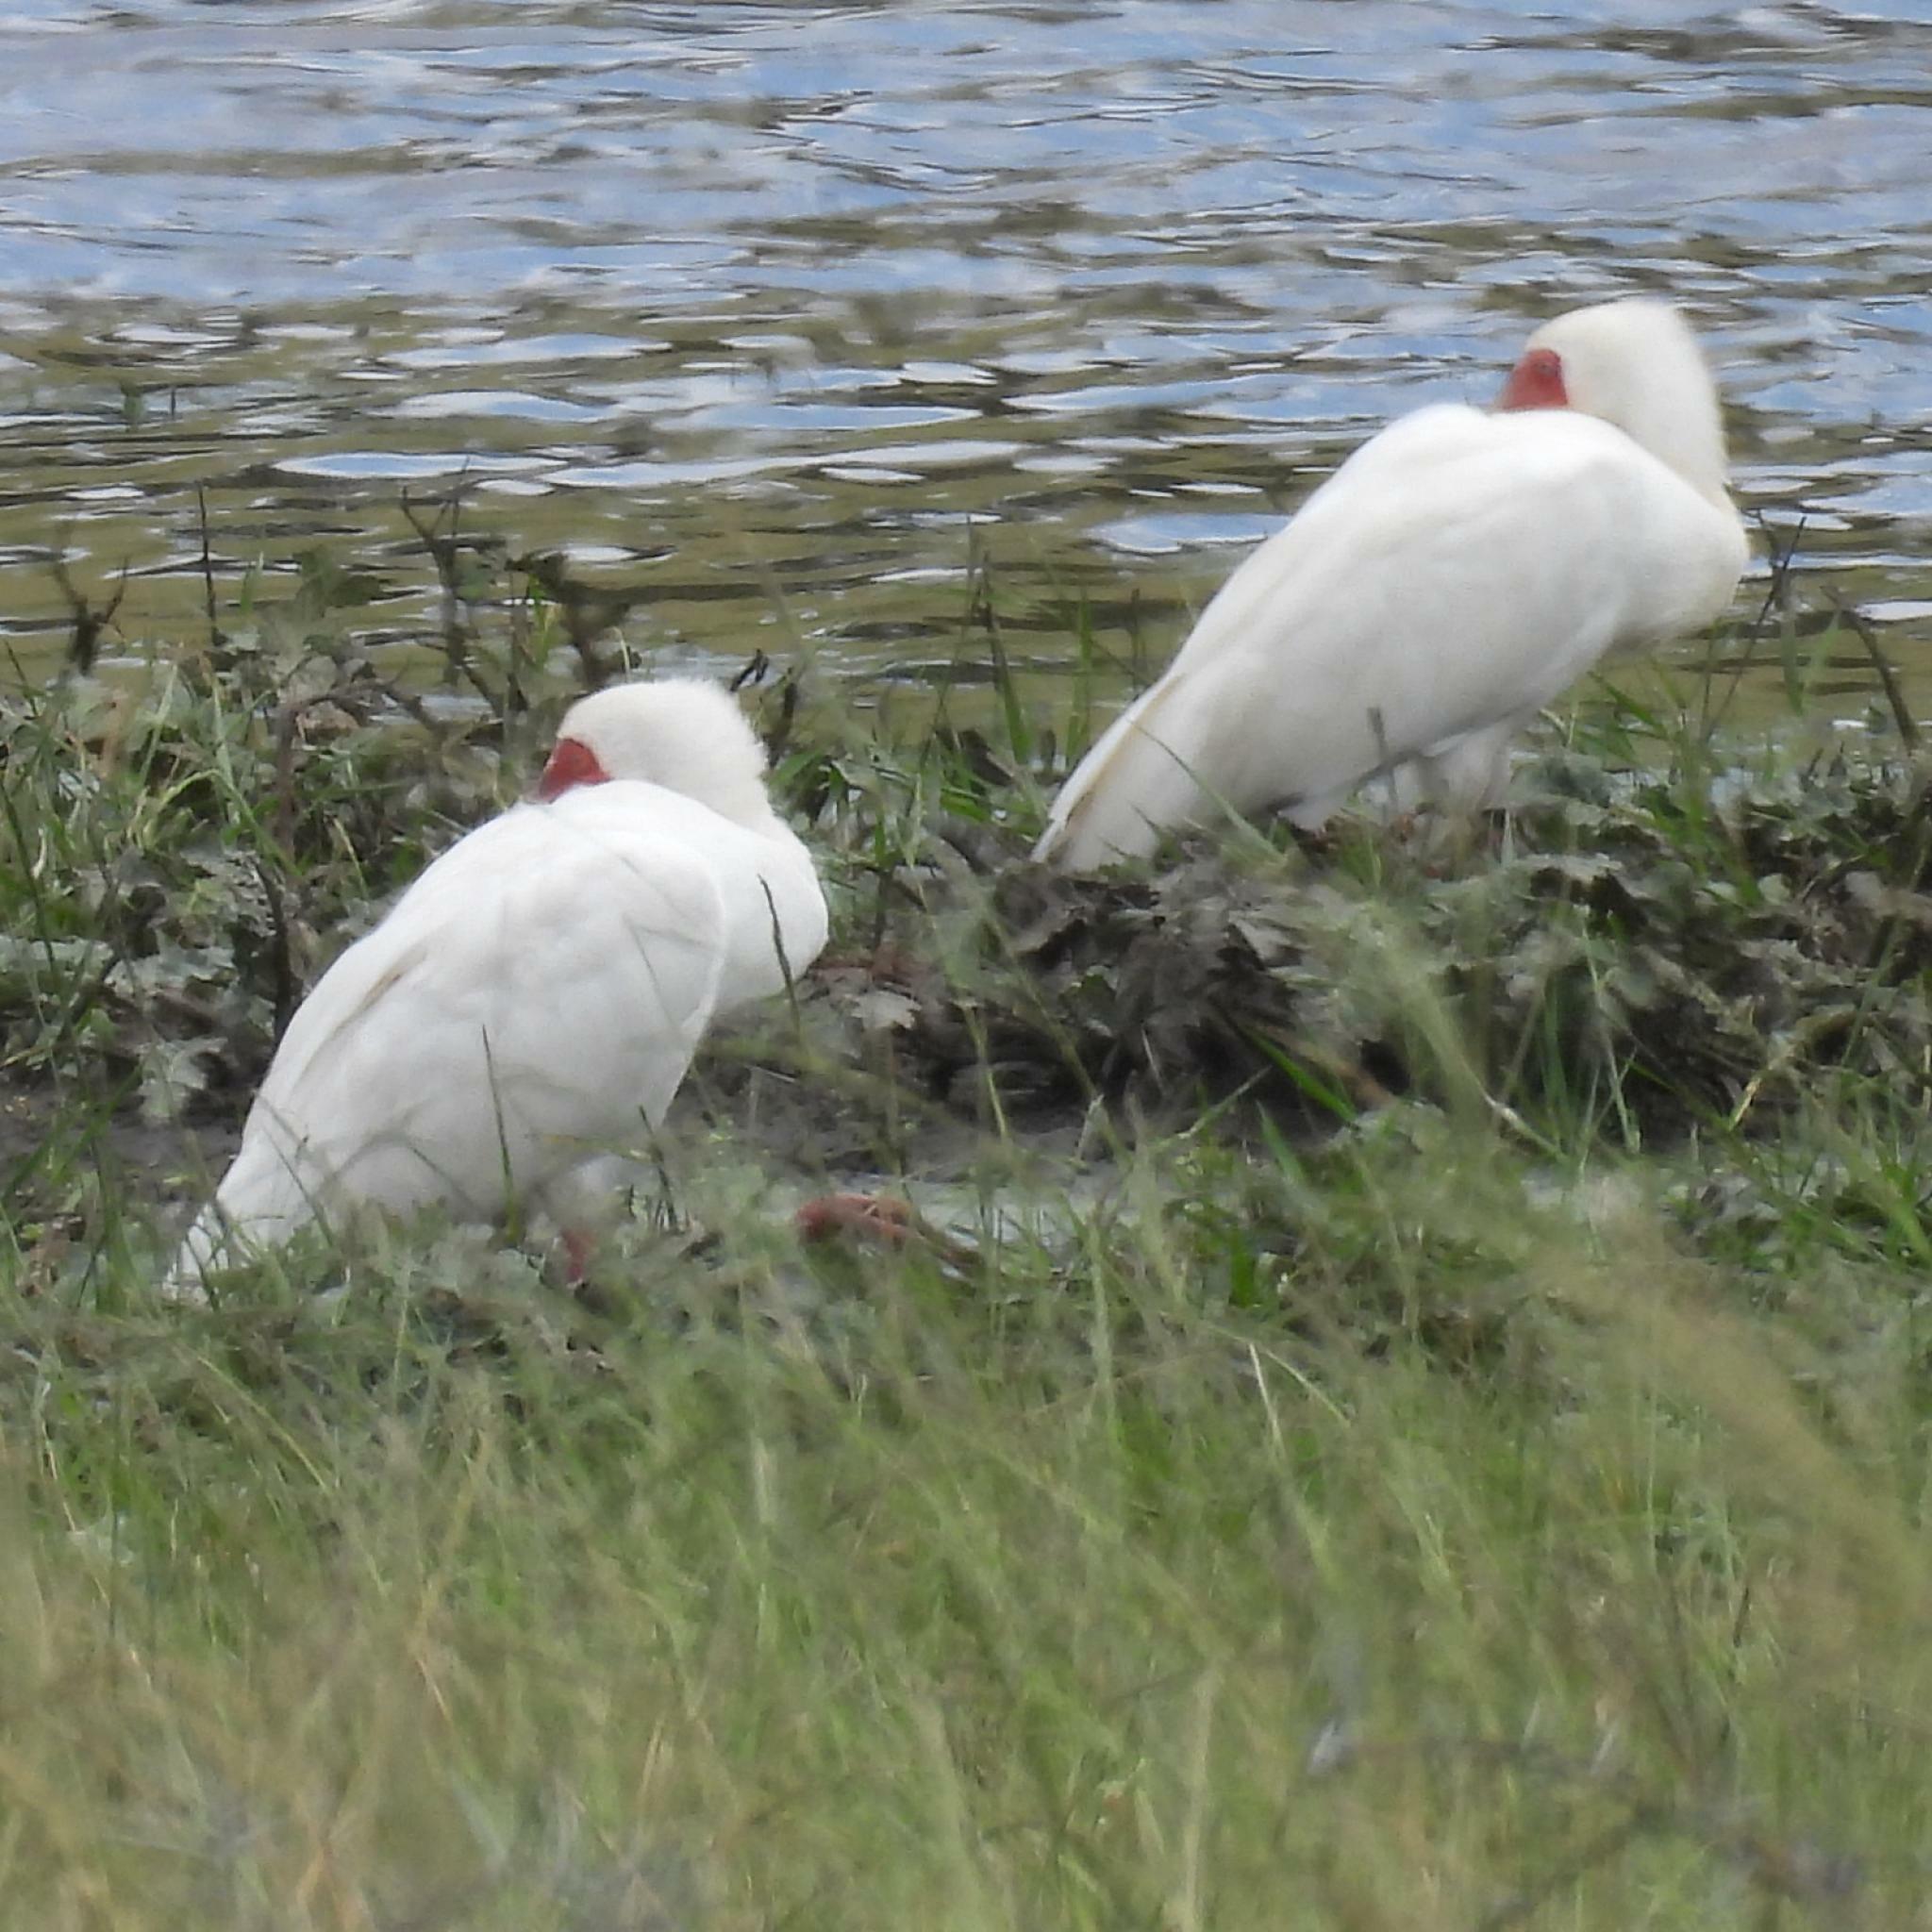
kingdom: Animalia
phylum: Chordata
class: Aves
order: Pelecaniformes
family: Threskiornithidae
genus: Platalea
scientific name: Platalea alba
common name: African spoonbill
